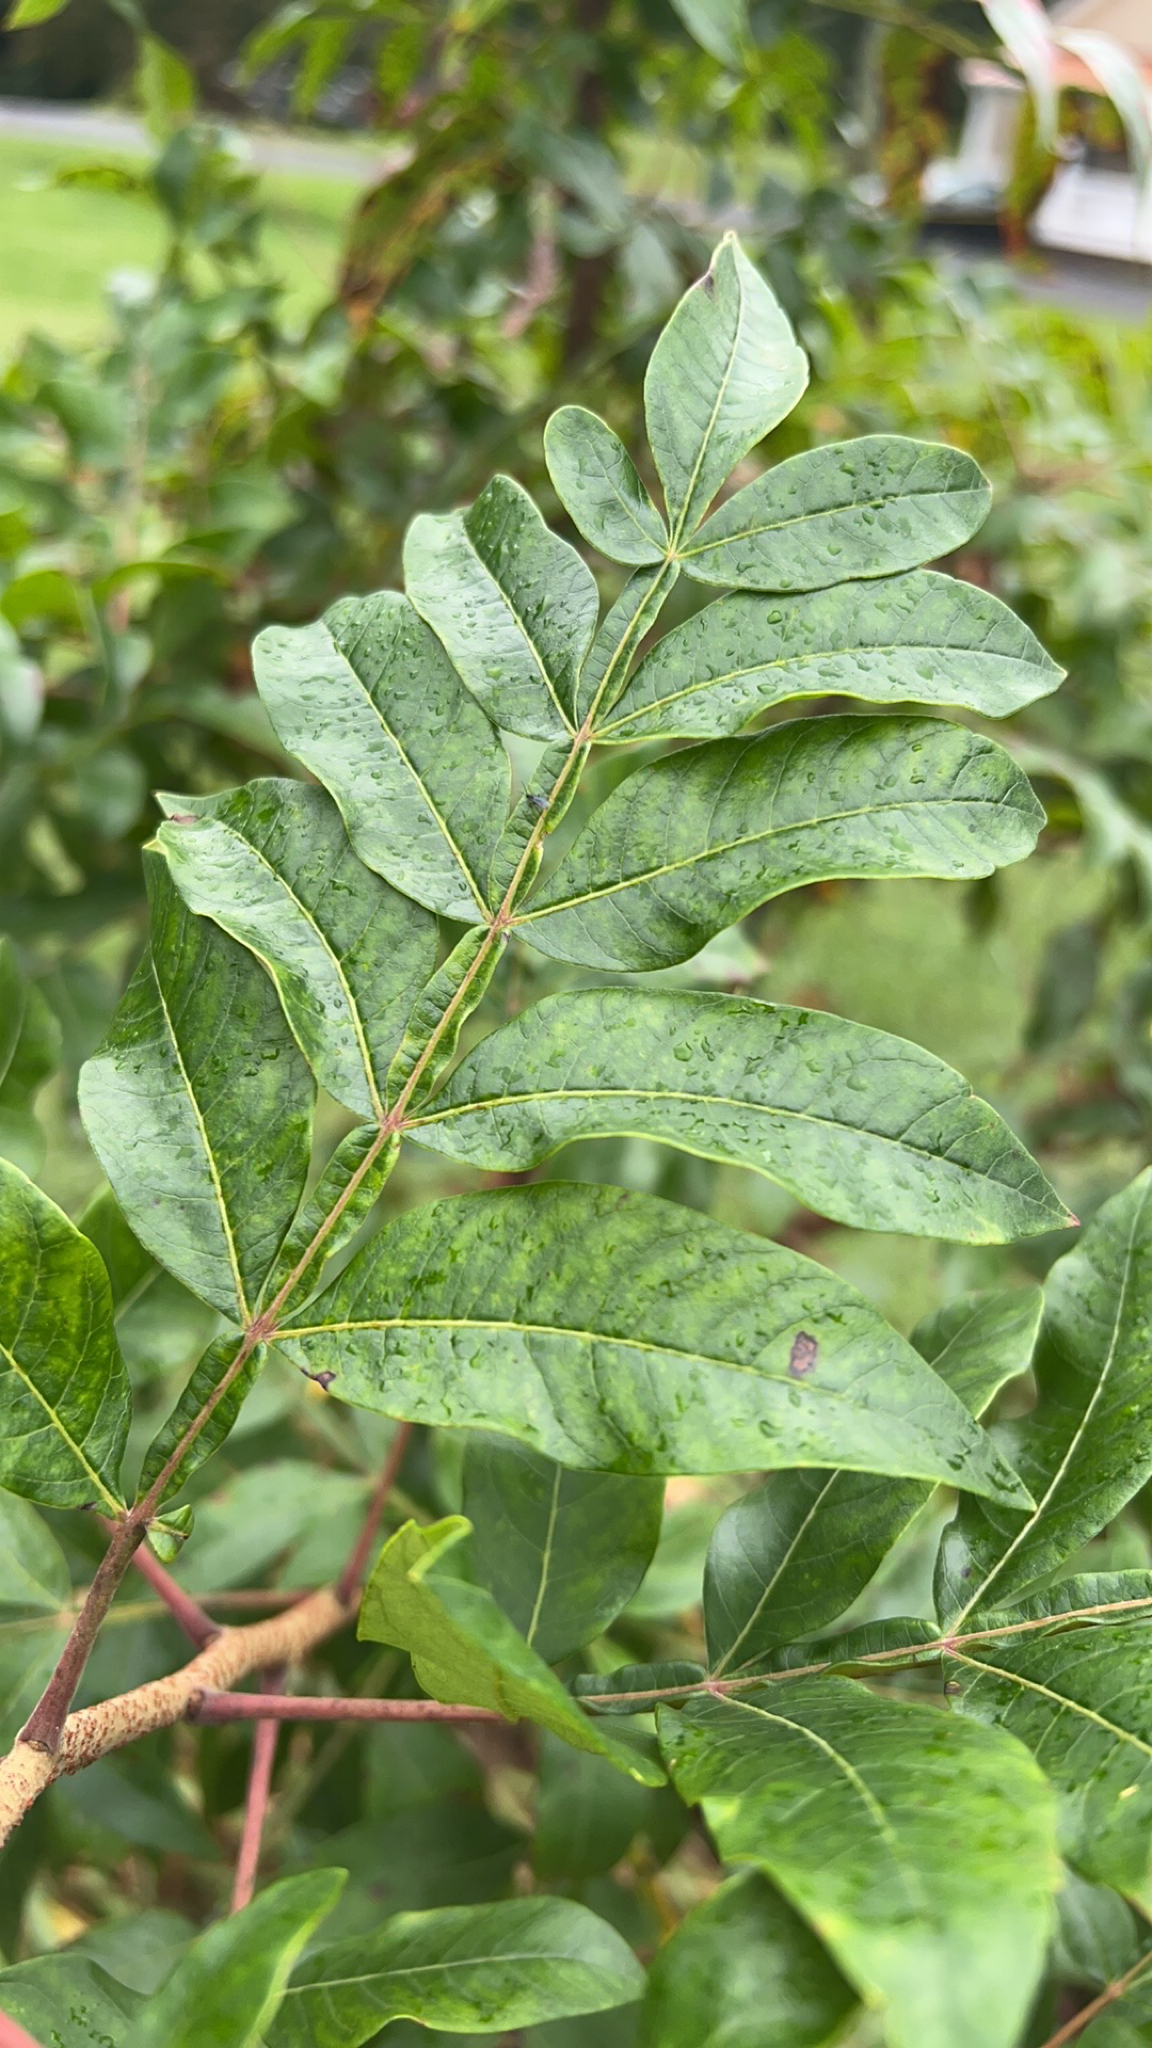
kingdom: Plantae
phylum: Tracheophyta
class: Magnoliopsida
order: Sapindales
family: Anacardiaceae
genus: Rhus
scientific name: Rhus copallina
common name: Shining sumac
